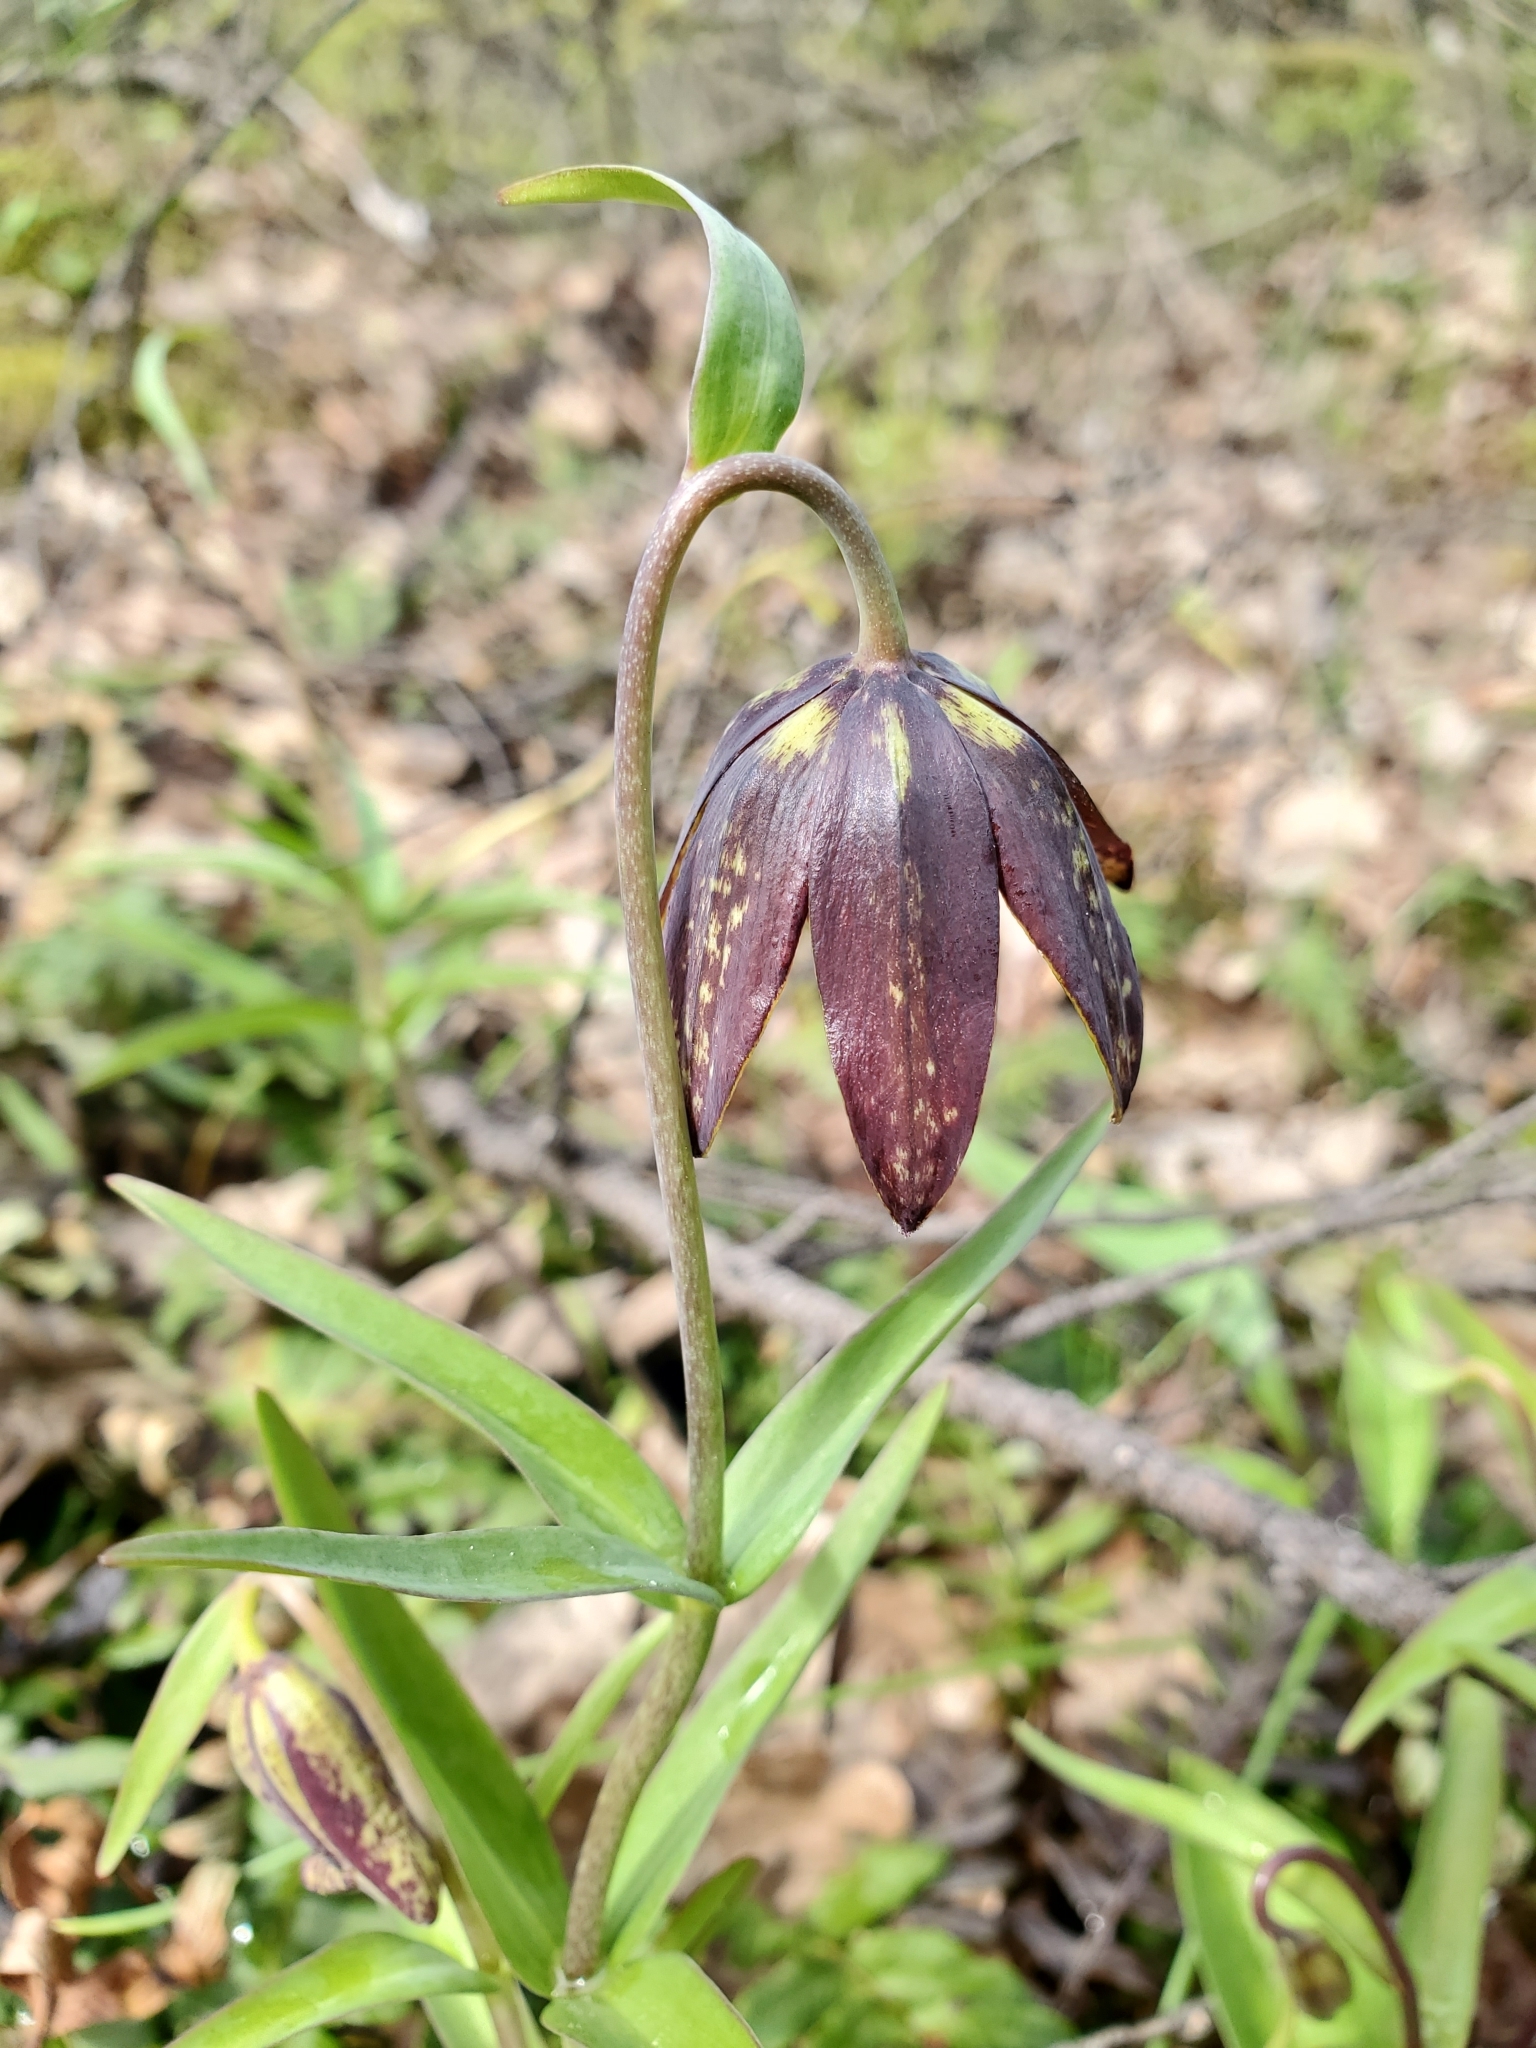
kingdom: Plantae
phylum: Tracheophyta
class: Liliopsida
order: Liliales
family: Liliaceae
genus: Fritillaria
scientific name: Fritillaria affinis
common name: Ojai fritillary
